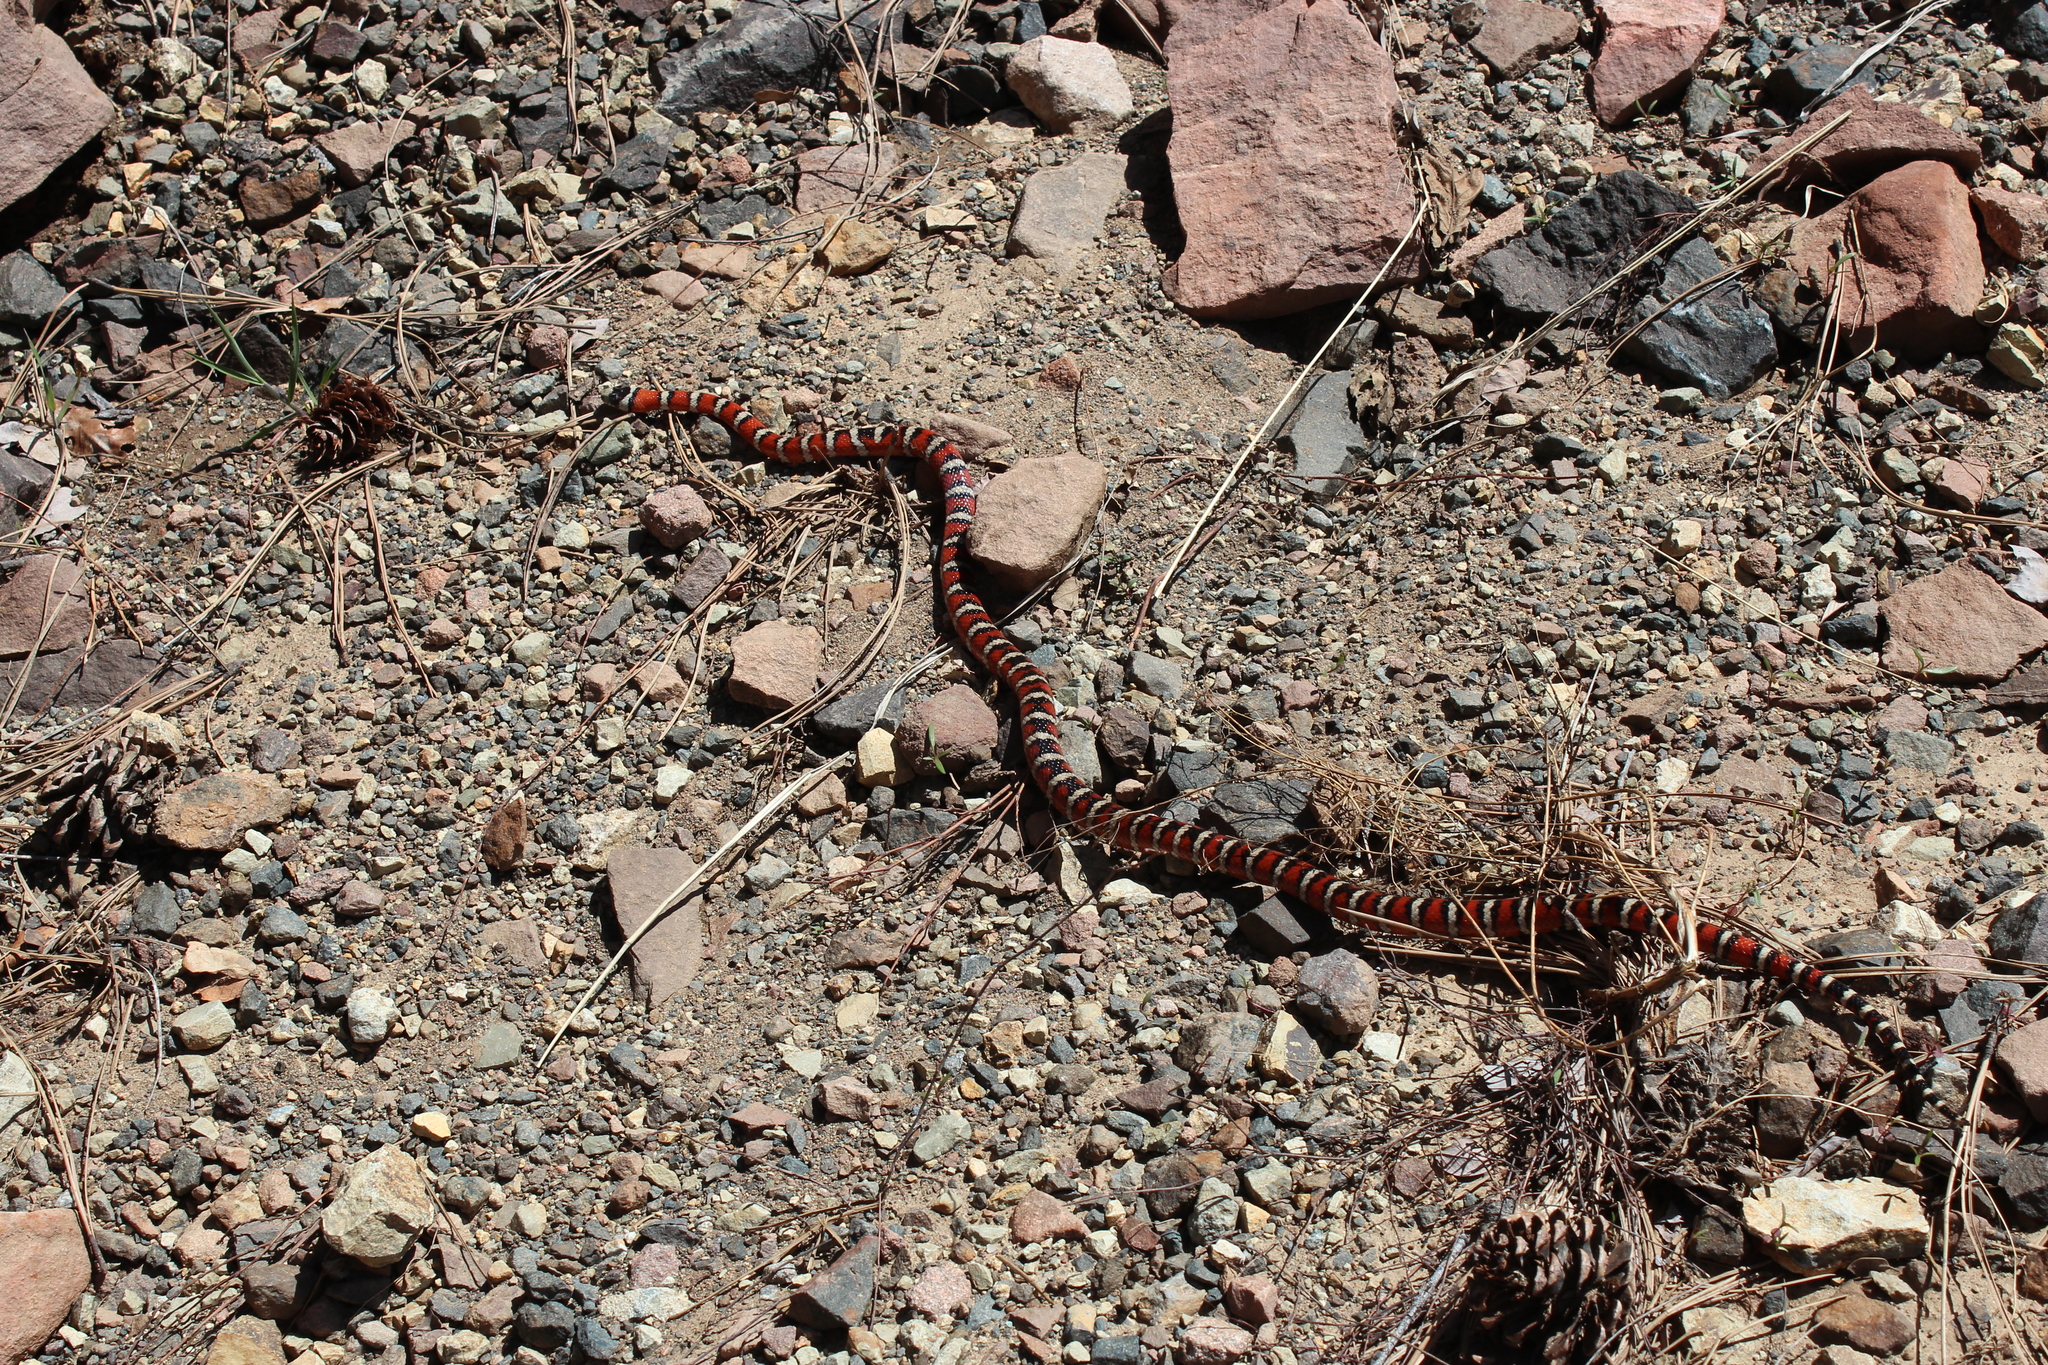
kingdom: Animalia
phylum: Chordata
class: Squamata
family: Colubridae
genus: Lampropeltis
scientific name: Lampropeltis pyromelana
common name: Sonoran mountain kingsnake
